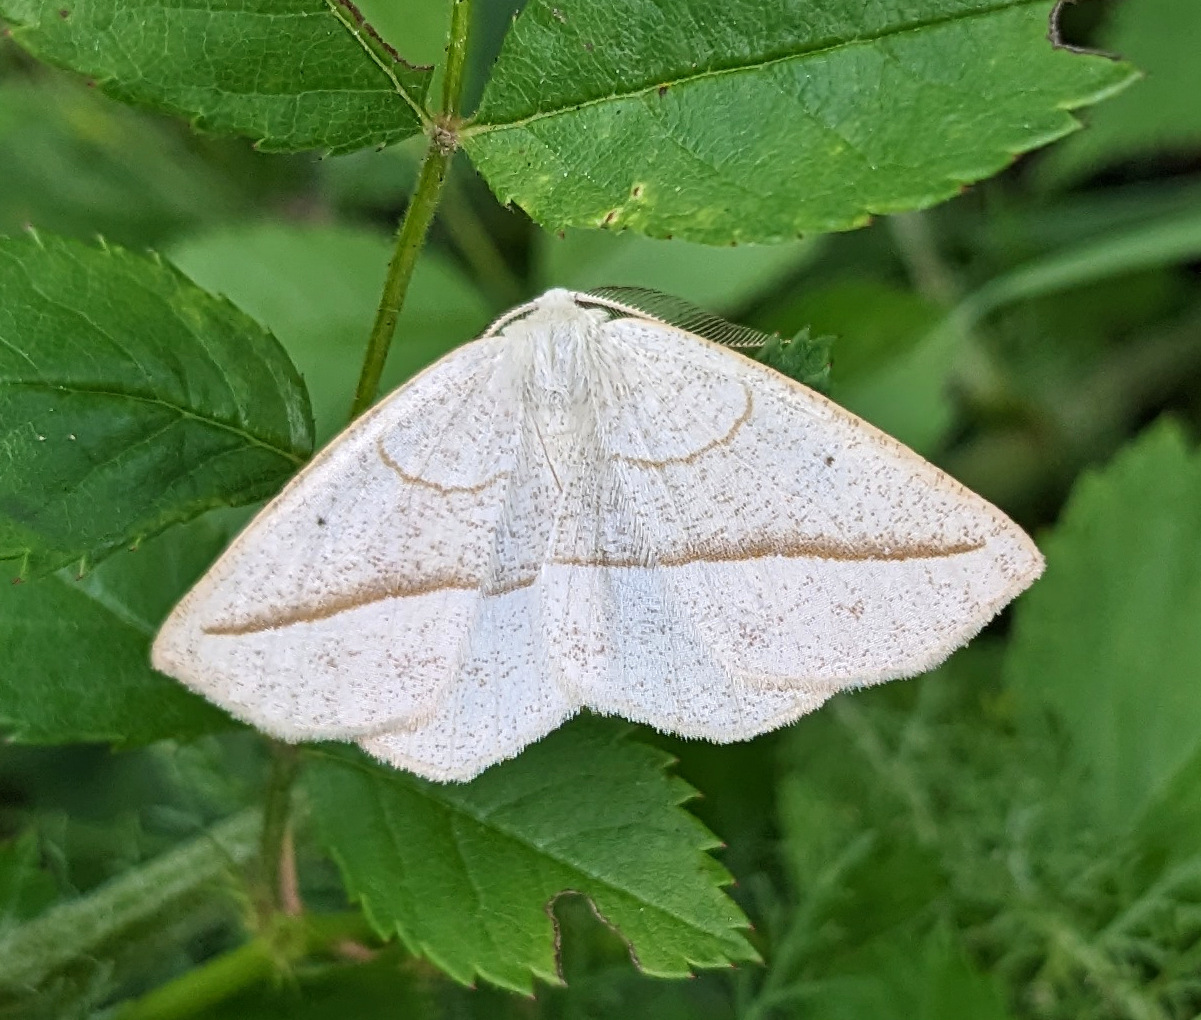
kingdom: Animalia
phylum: Arthropoda
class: Insecta
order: Lepidoptera
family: Geometridae
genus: Eusarca
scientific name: Eusarca confusaria
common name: Confused eusarca
